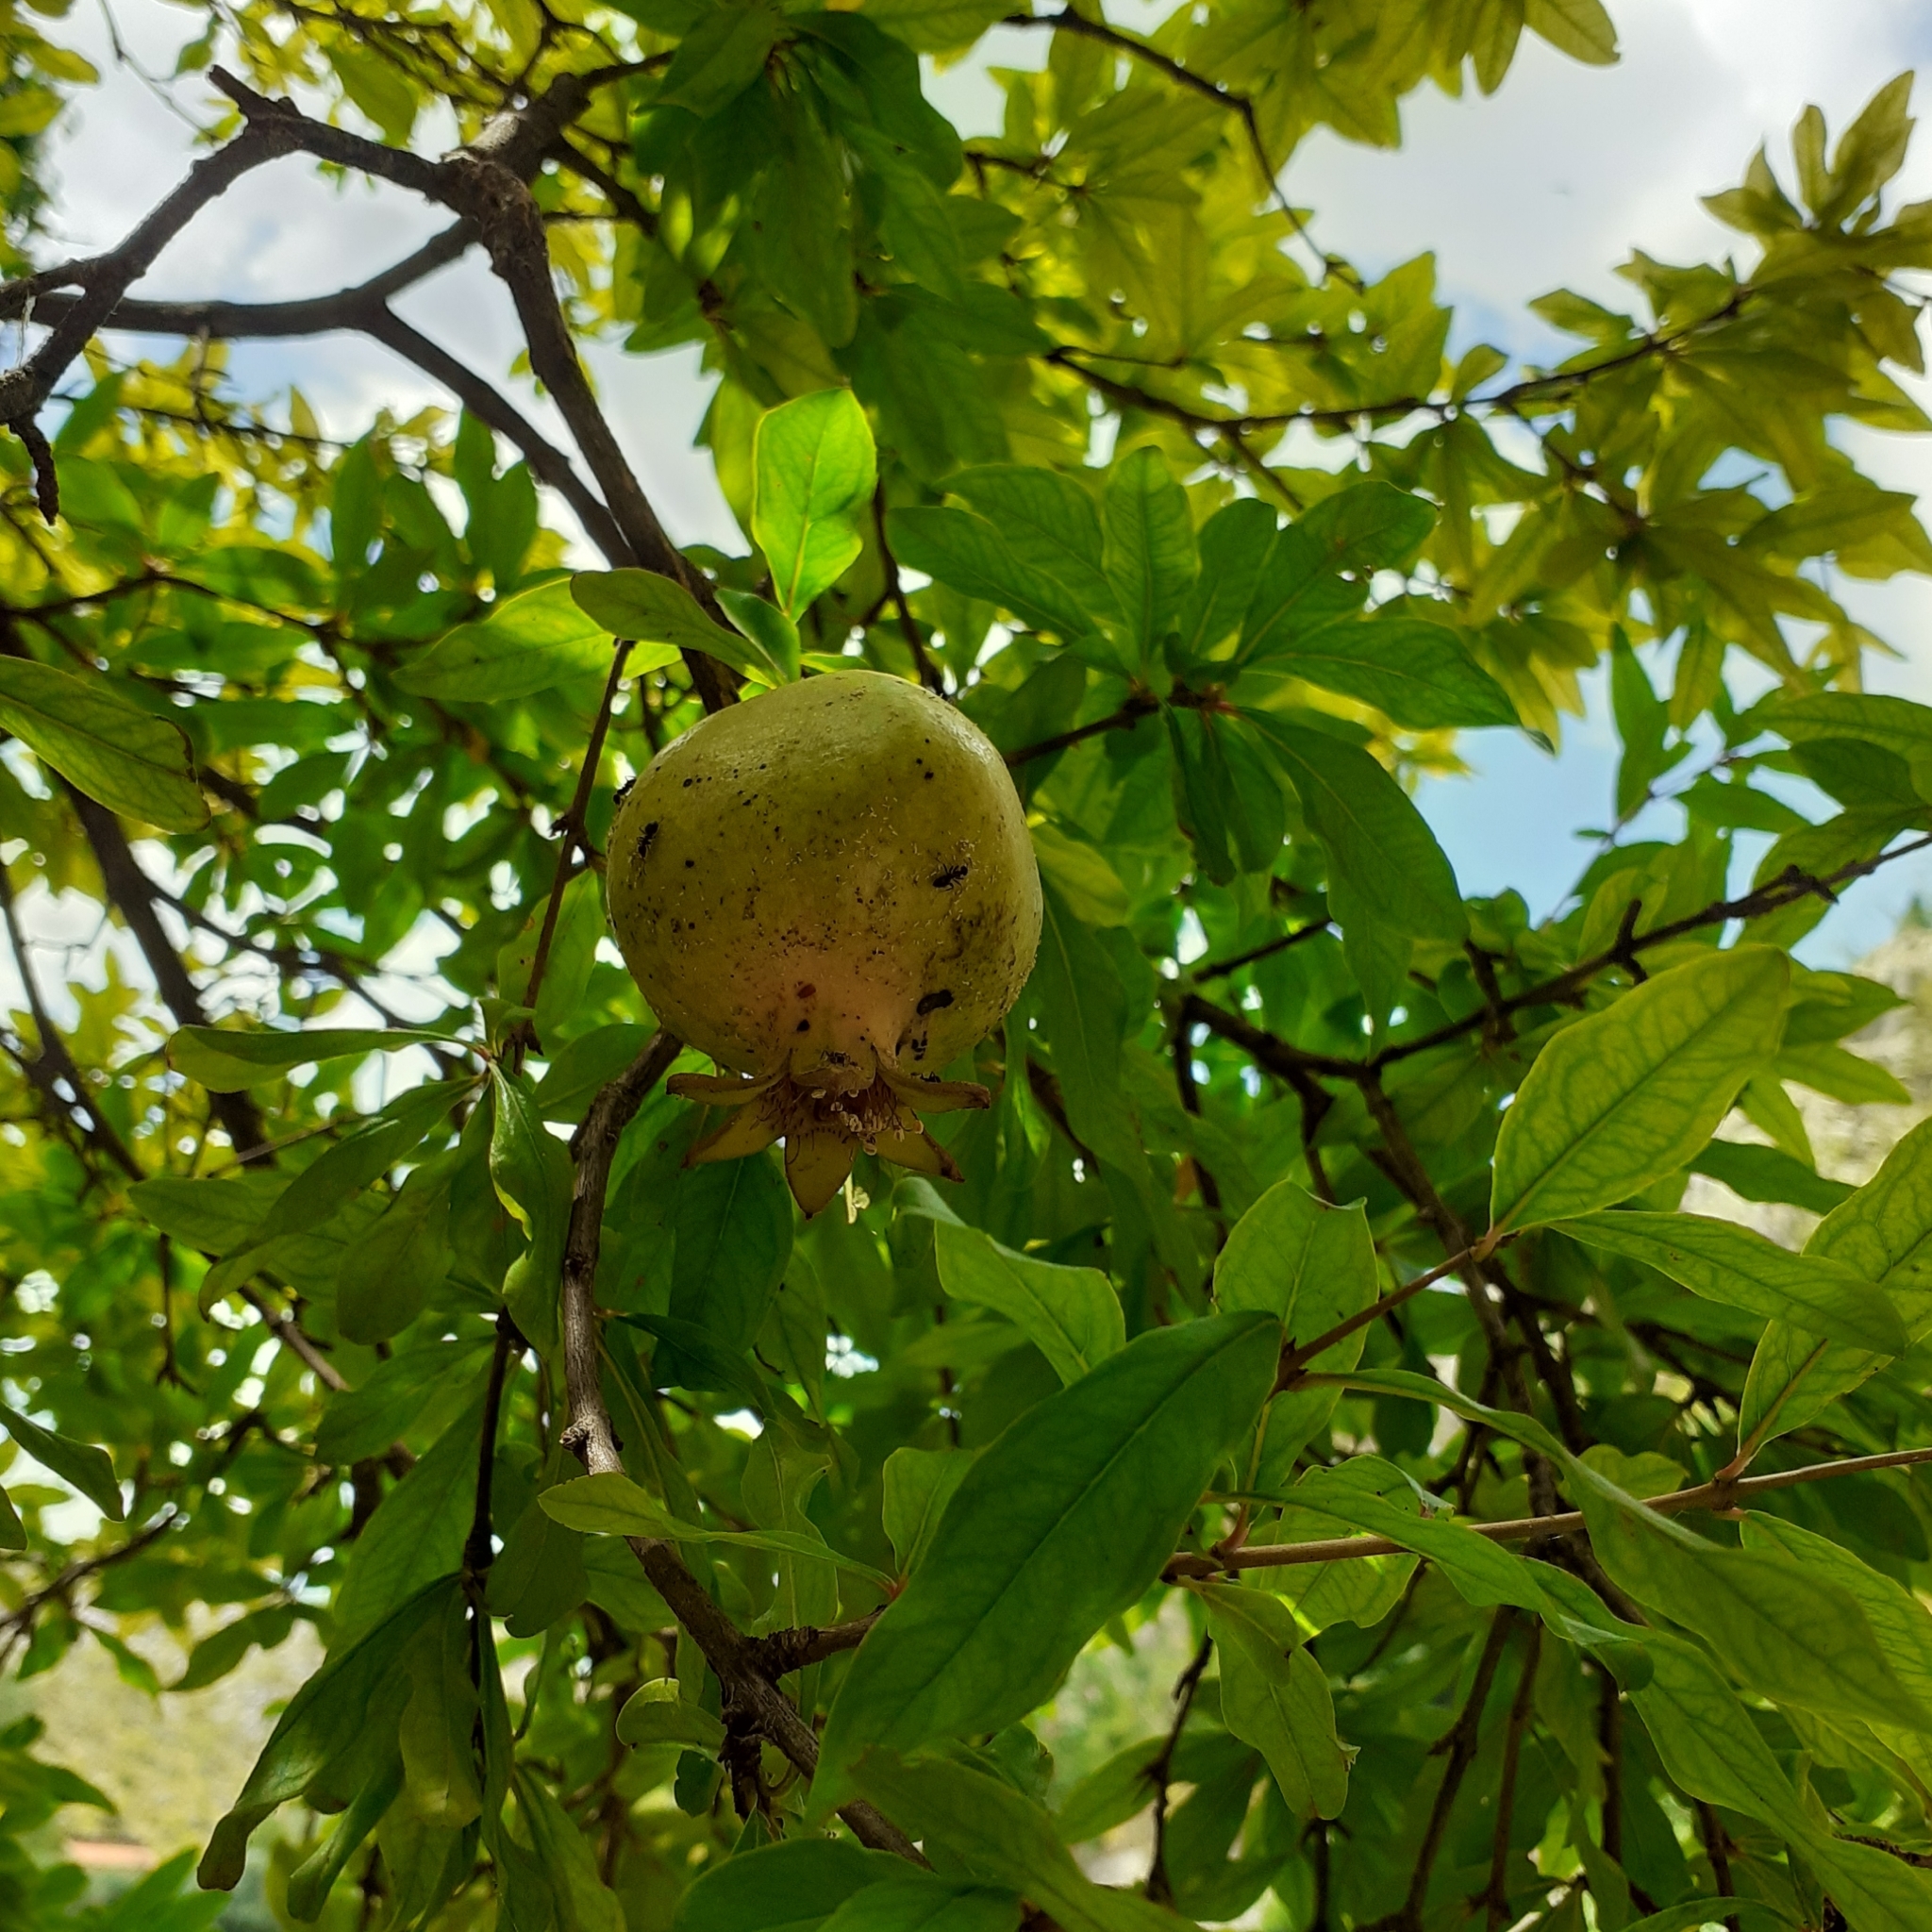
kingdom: Plantae
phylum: Tracheophyta
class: Magnoliopsida
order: Myrtales
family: Lythraceae
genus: Punica
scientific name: Punica granatum
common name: Pomegranate
